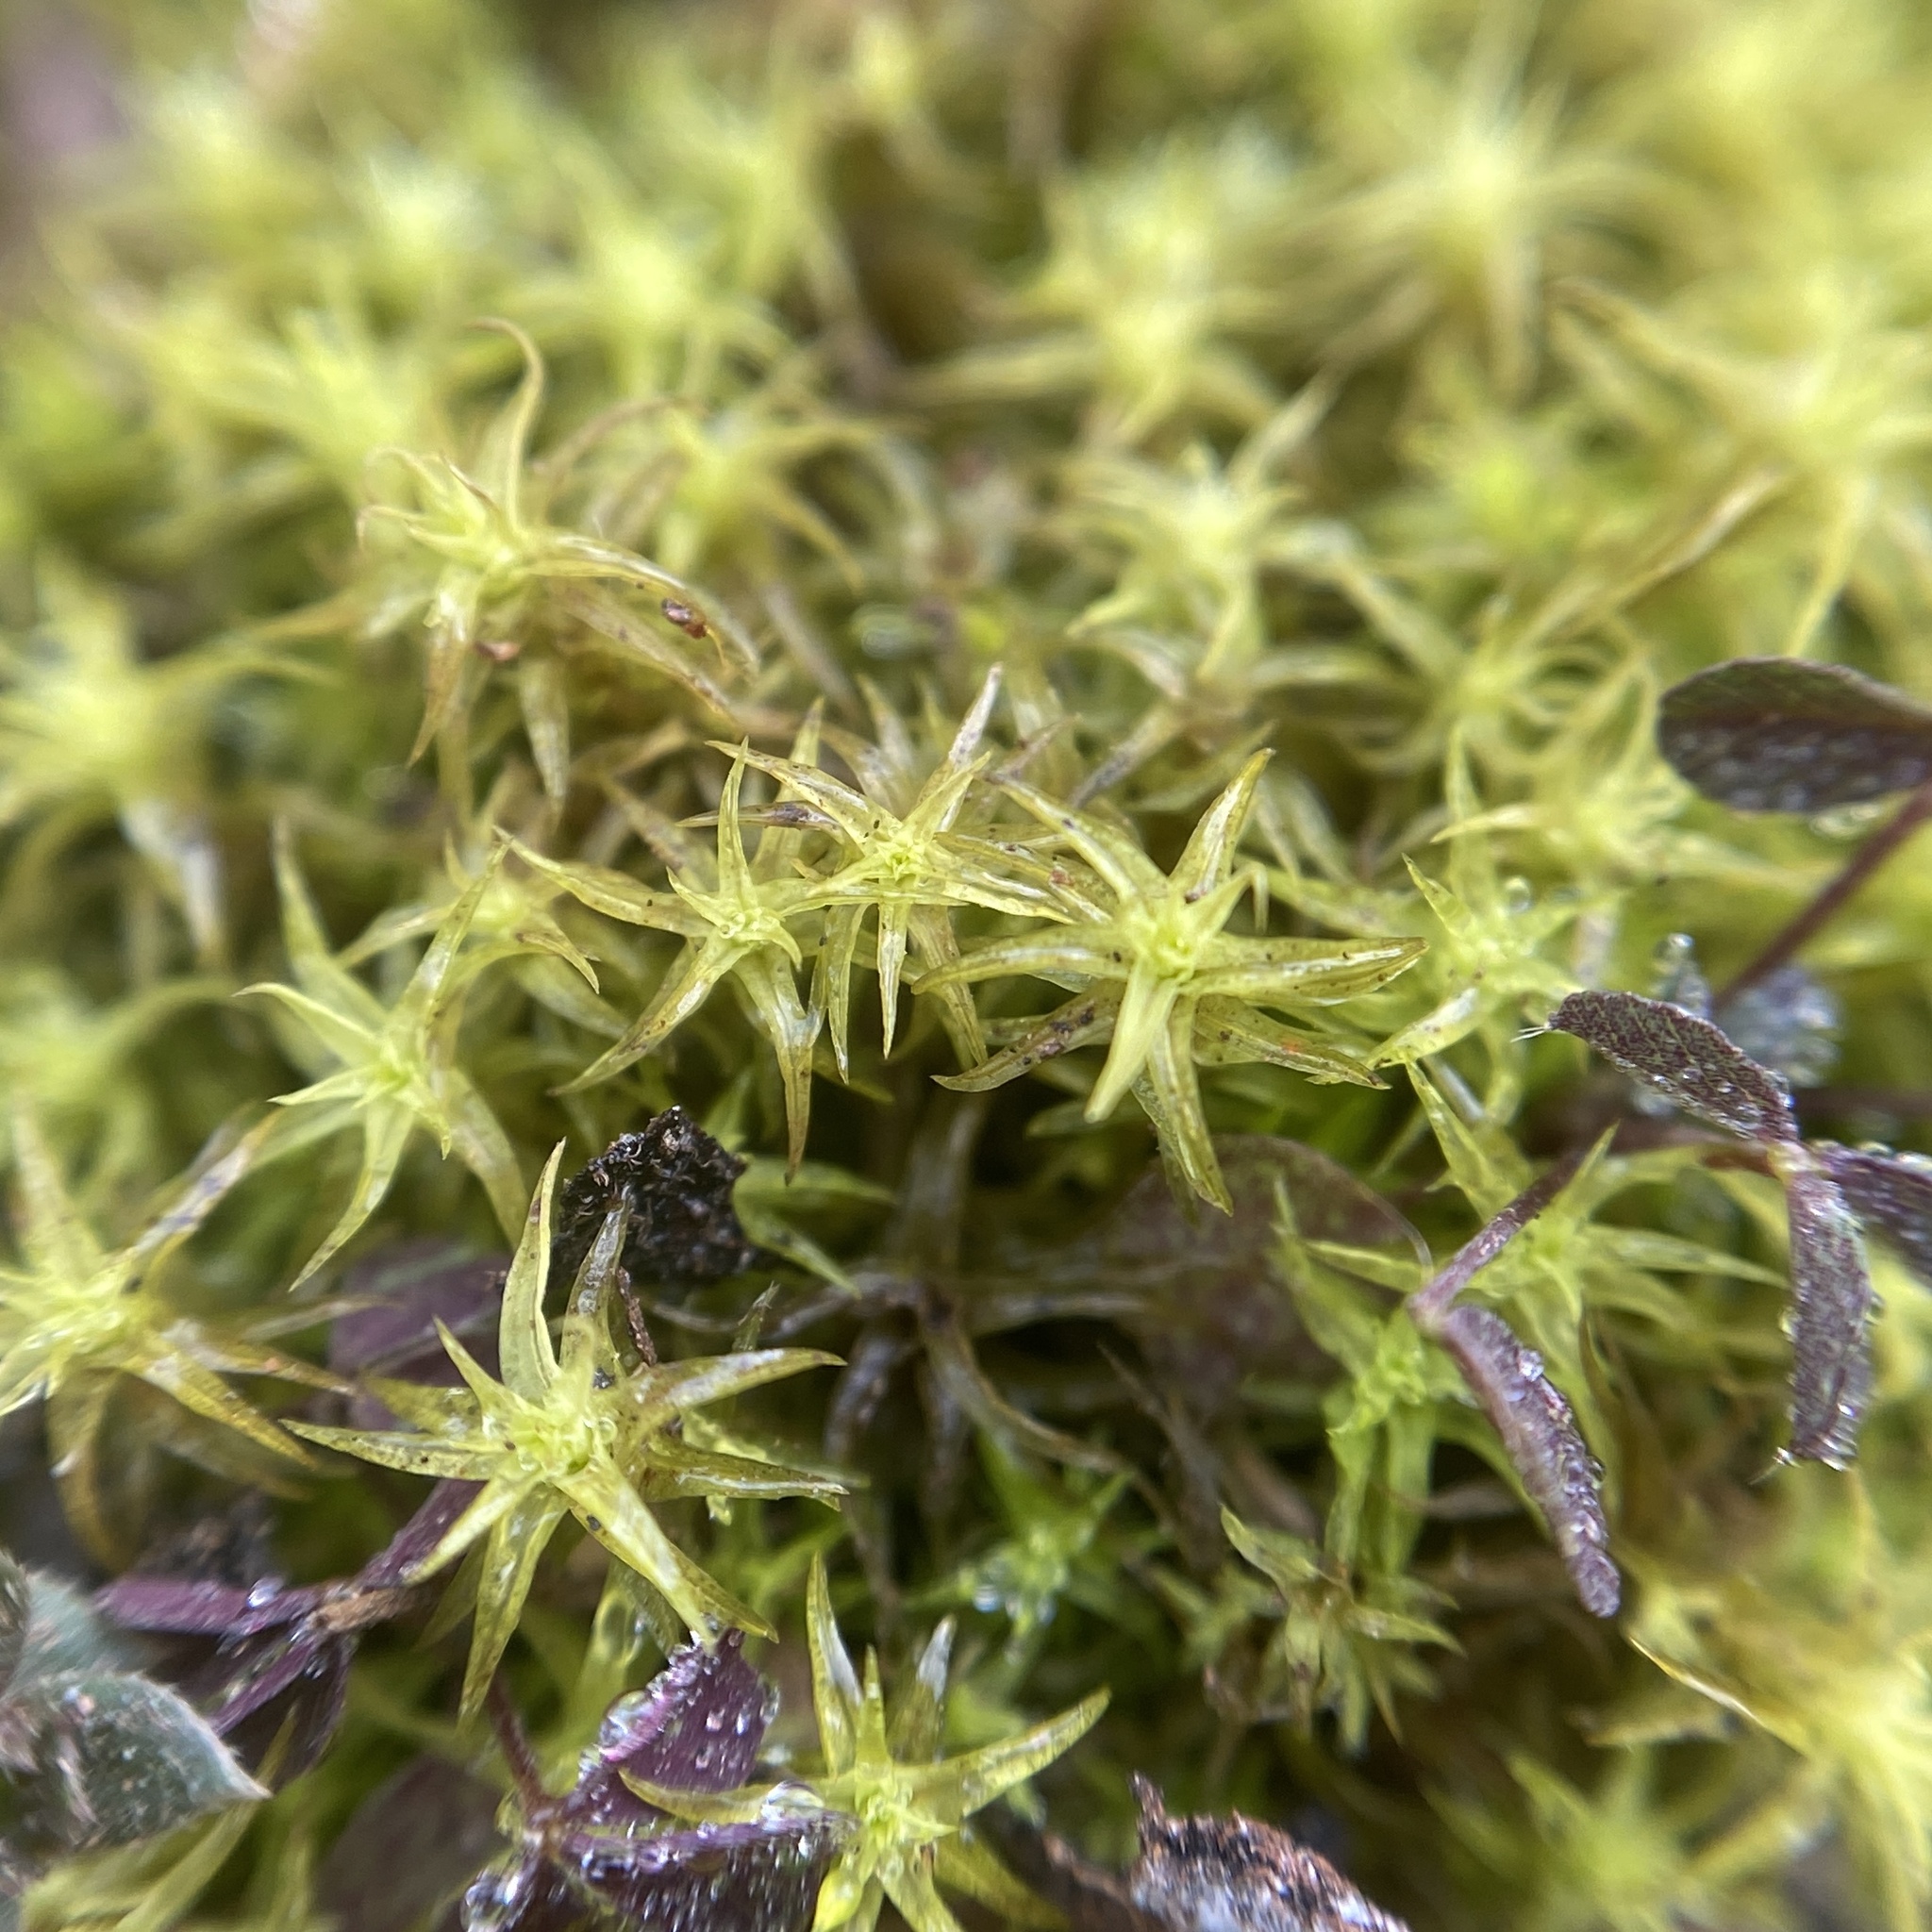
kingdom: Plantae
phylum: Bryophyta
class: Bryopsida
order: Pottiales
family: Pottiaceae
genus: Pleurochaete
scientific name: Pleurochaete squarrosa
